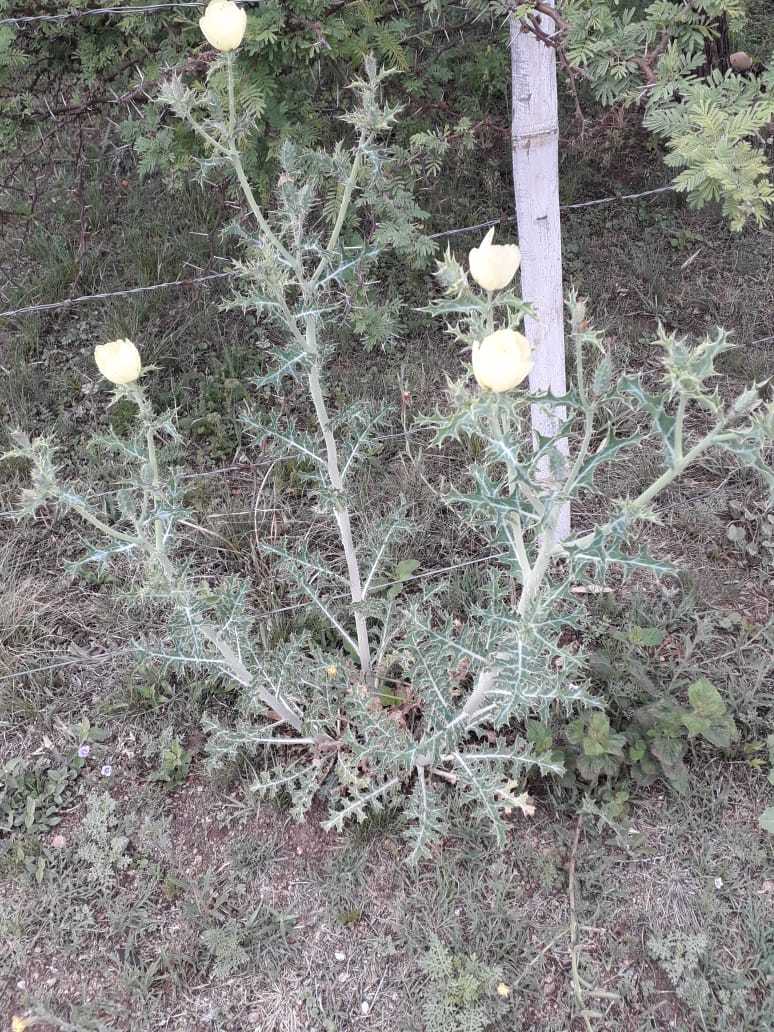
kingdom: Plantae
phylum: Tracheophyta
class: Magnoliopsida
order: Ranunculales
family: Papaveraceae
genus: Argemone
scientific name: Argemone subfusiformis
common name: American-poppy
